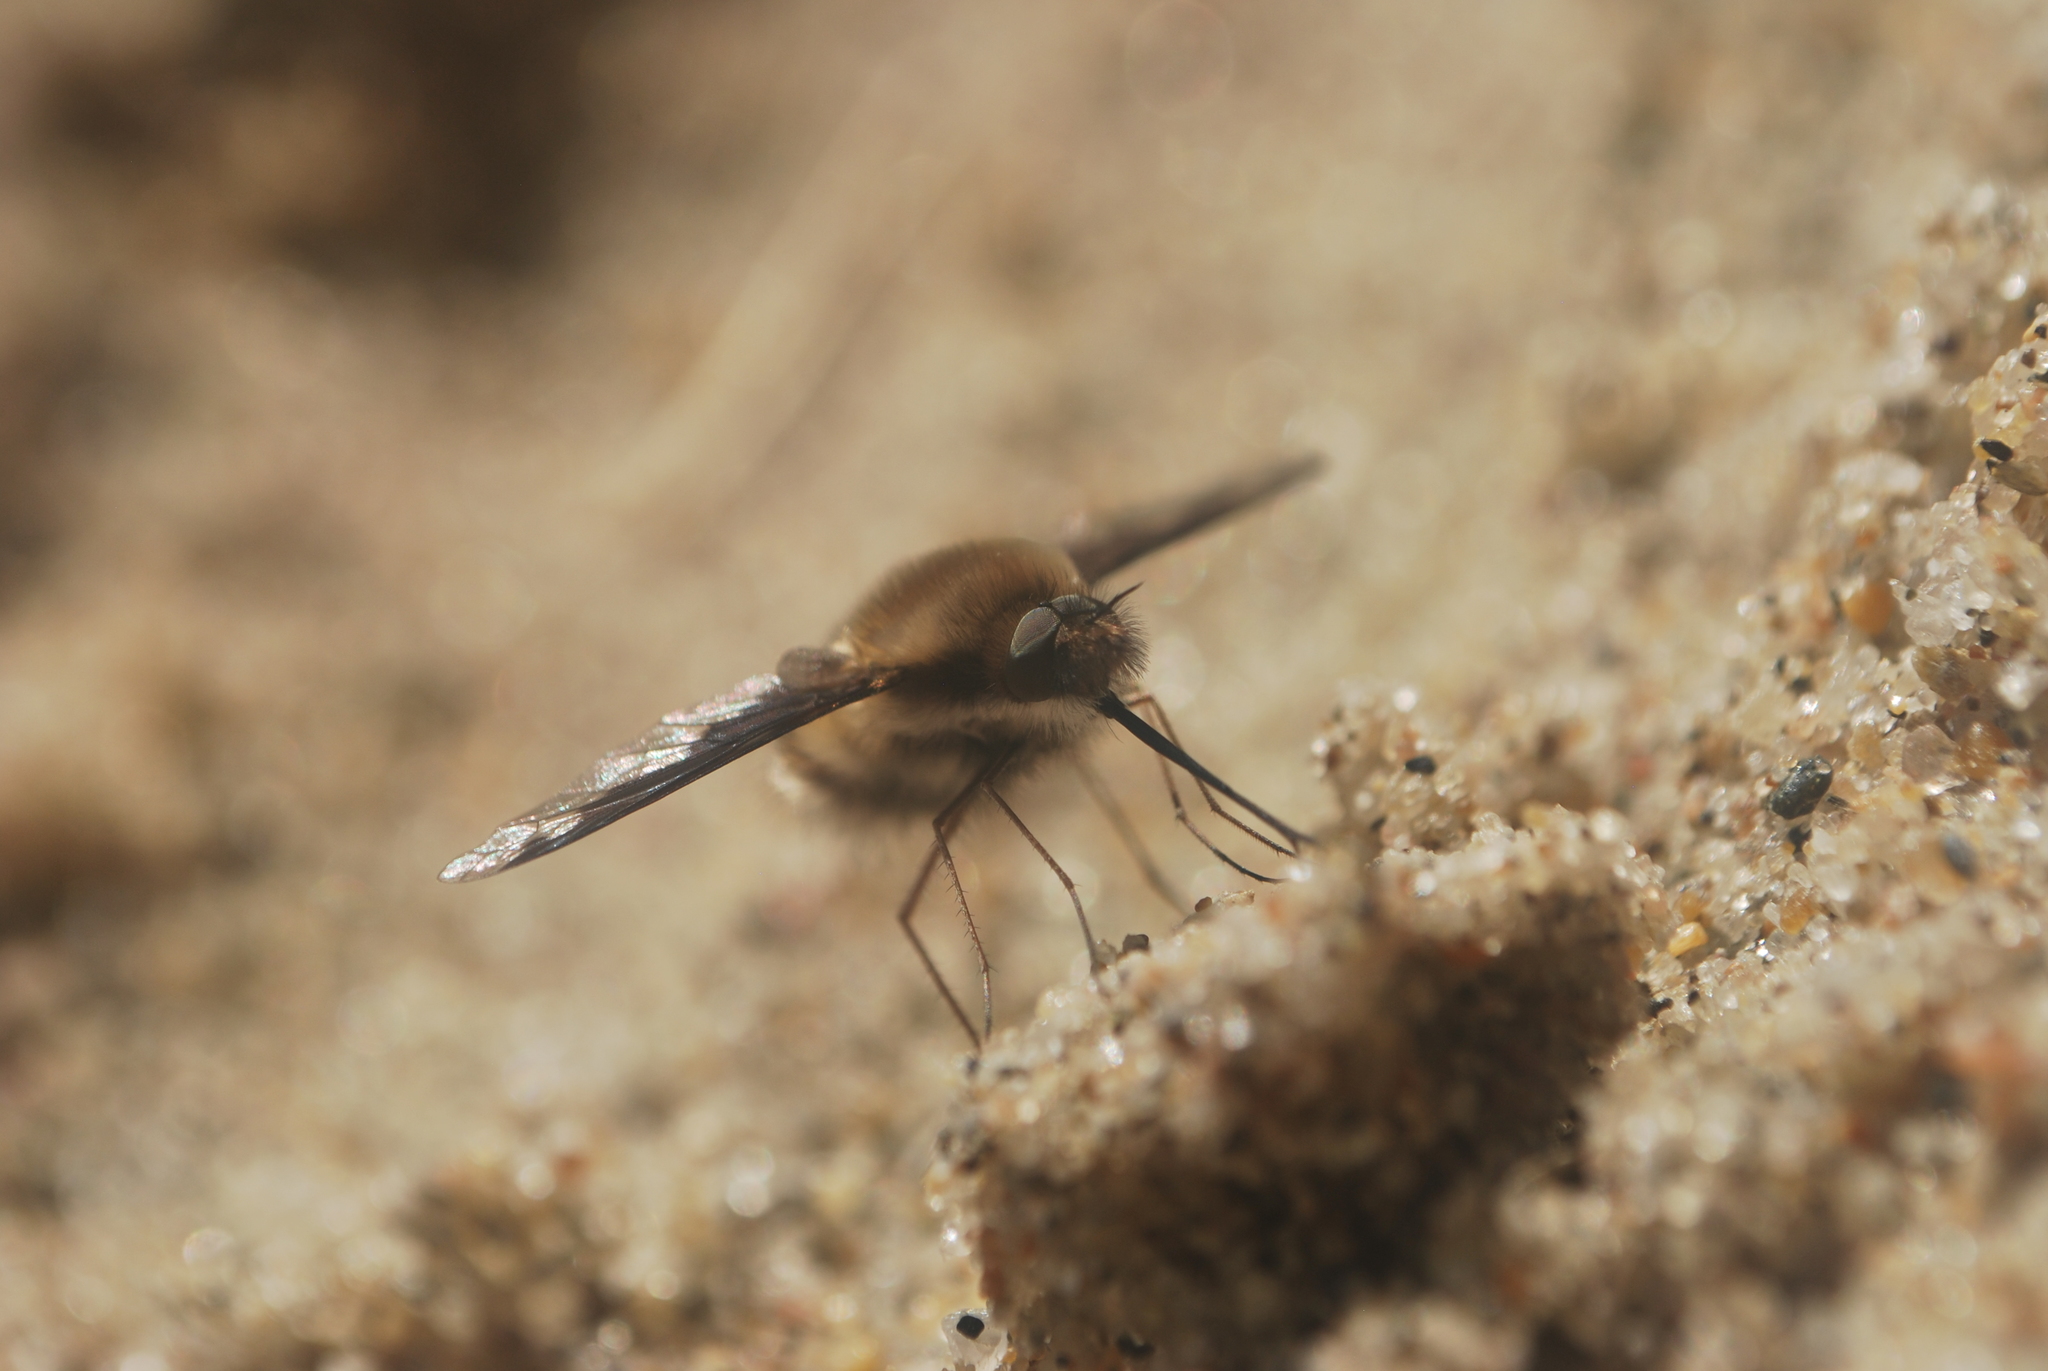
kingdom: Animalia
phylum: Arthropoda
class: Insecta
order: Diptera
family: Bombyliidae
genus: Bombylius
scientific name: Bombylius major
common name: Bee fly
